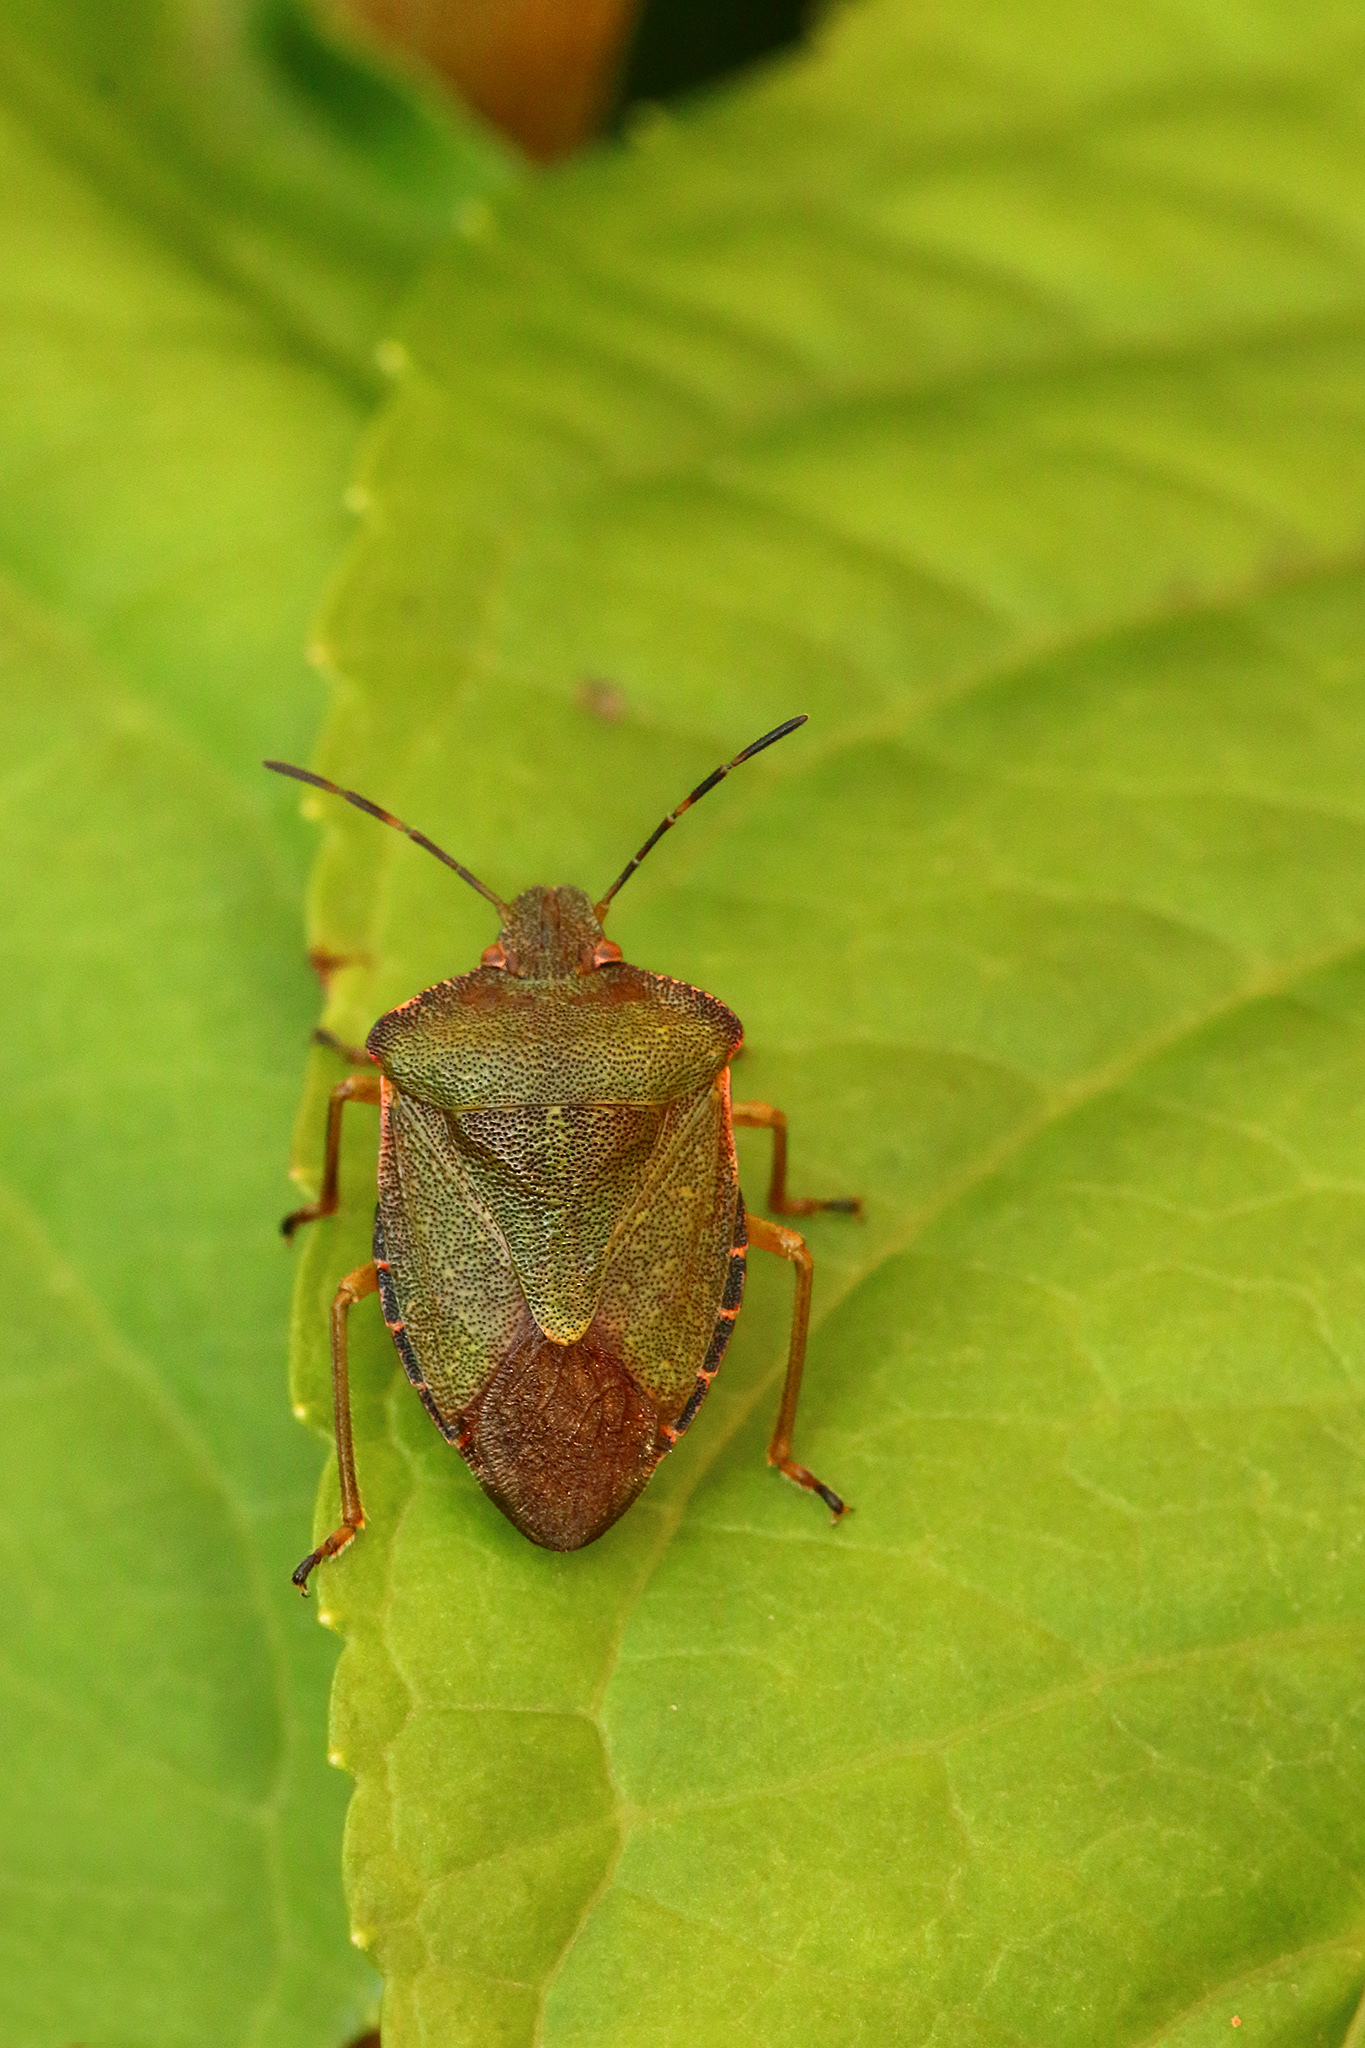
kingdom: Animalia
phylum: Arthropoda
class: Insecta
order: Hemiptera
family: Pentatomidae
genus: Palomena
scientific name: Palomena prasina
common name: Green shieldbug
